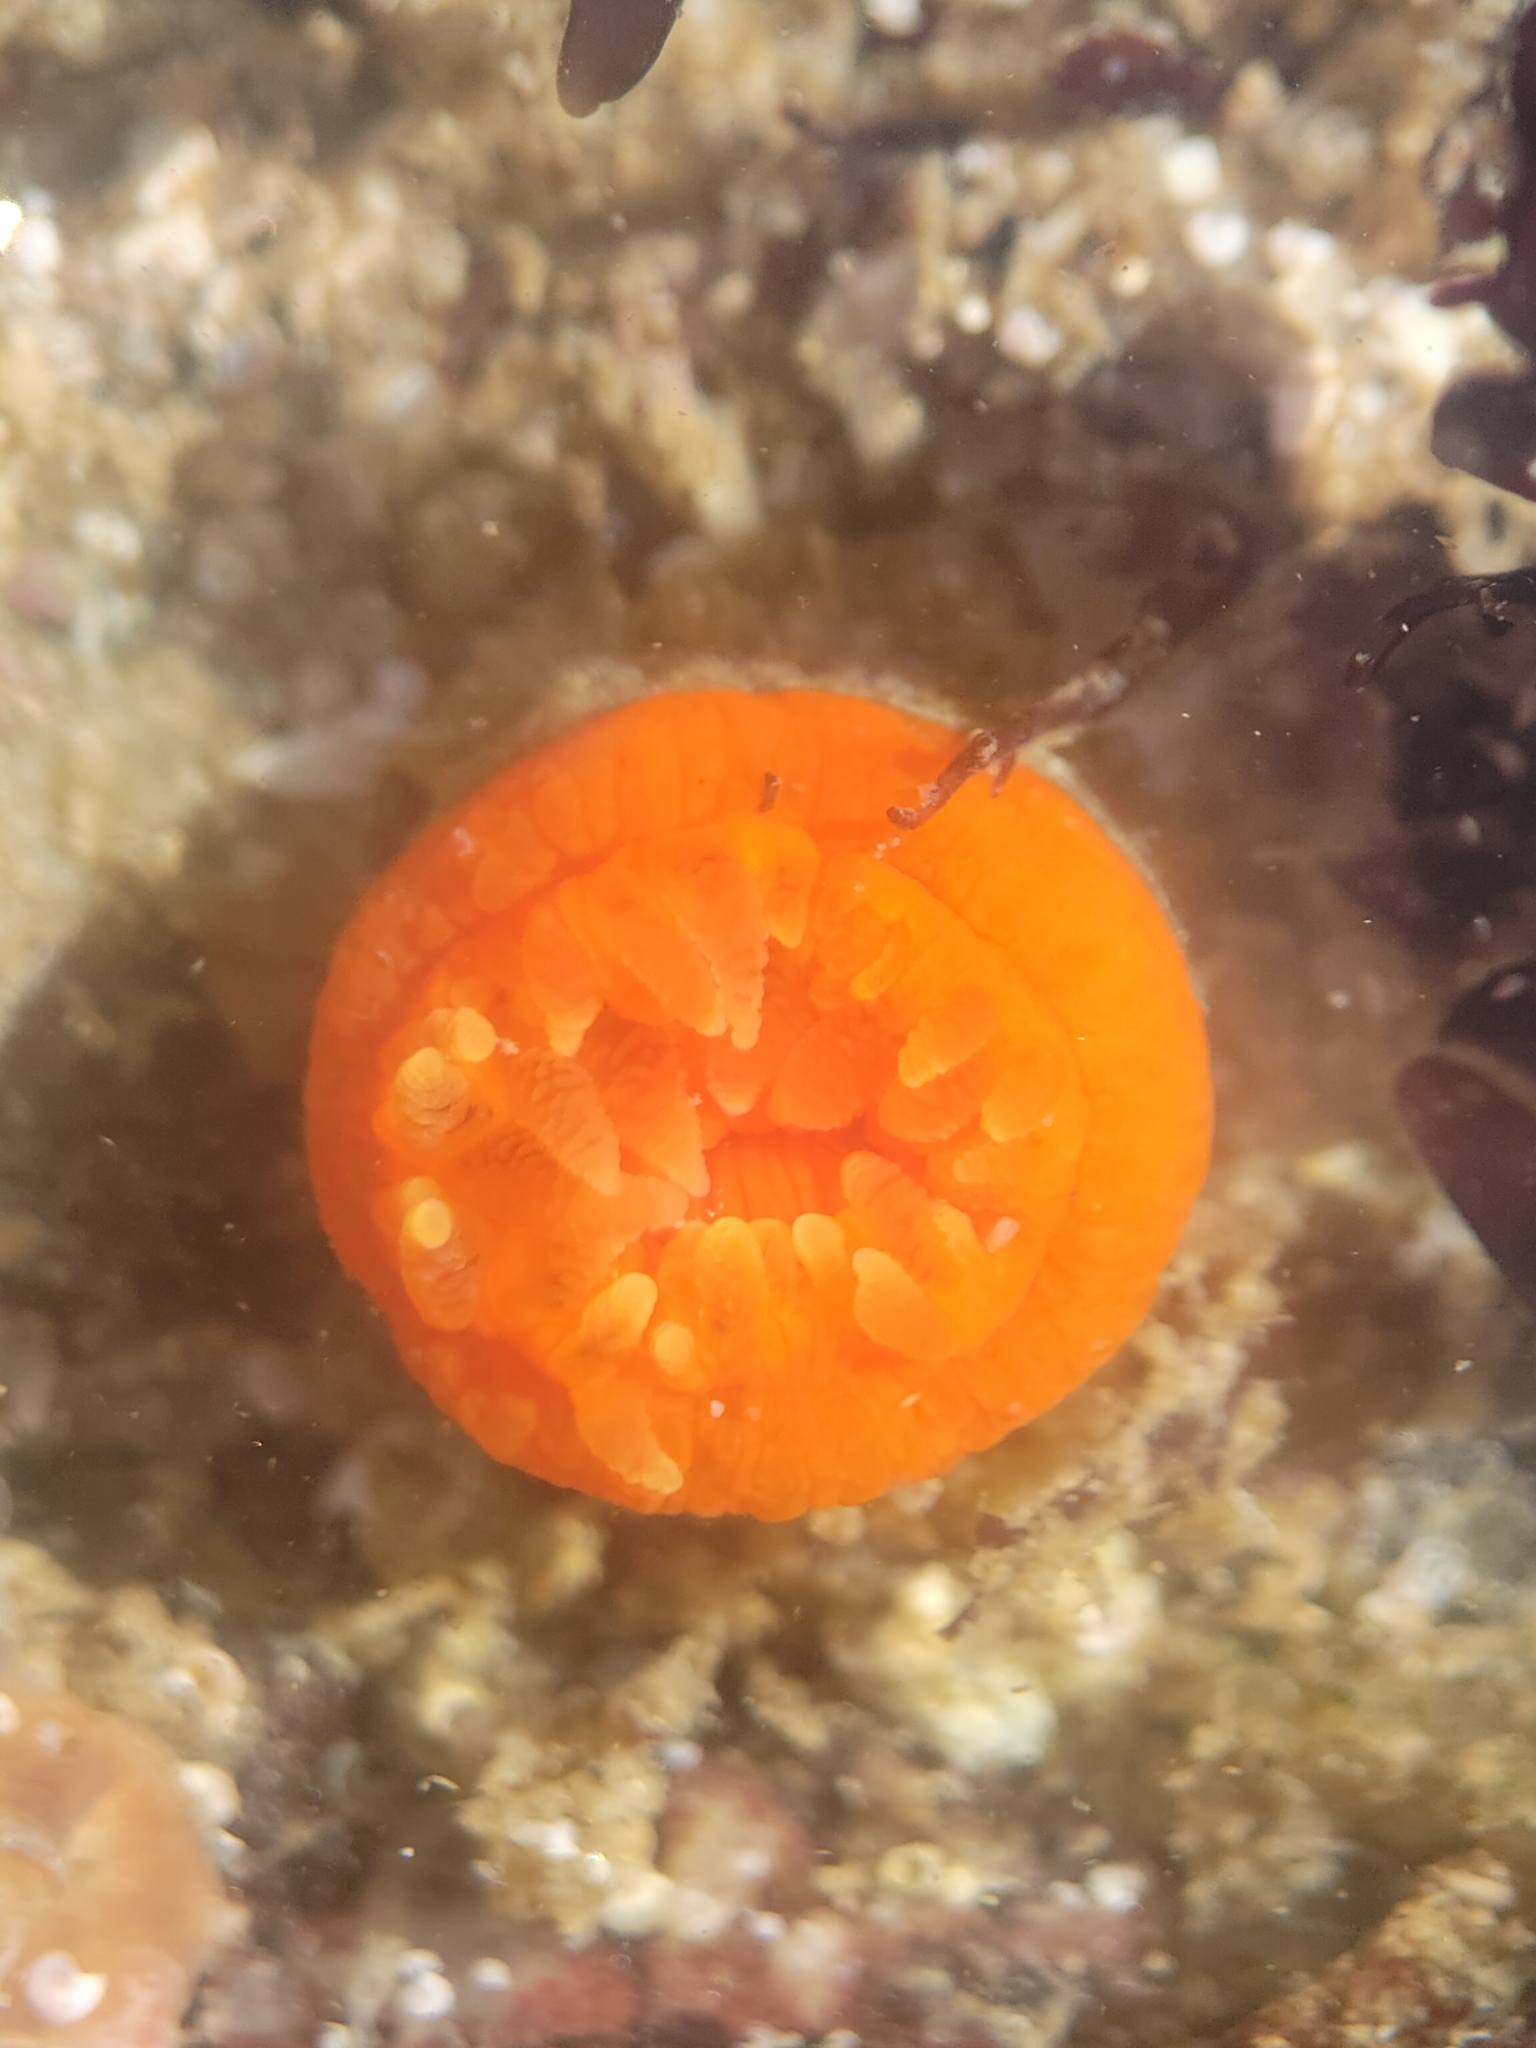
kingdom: Animalia
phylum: Cnidaria
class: Anthozoa
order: Scleractinia
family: Dendrophylliidae
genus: Balanophyllia
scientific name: Balanophyllia elegans
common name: Orange stony coral
